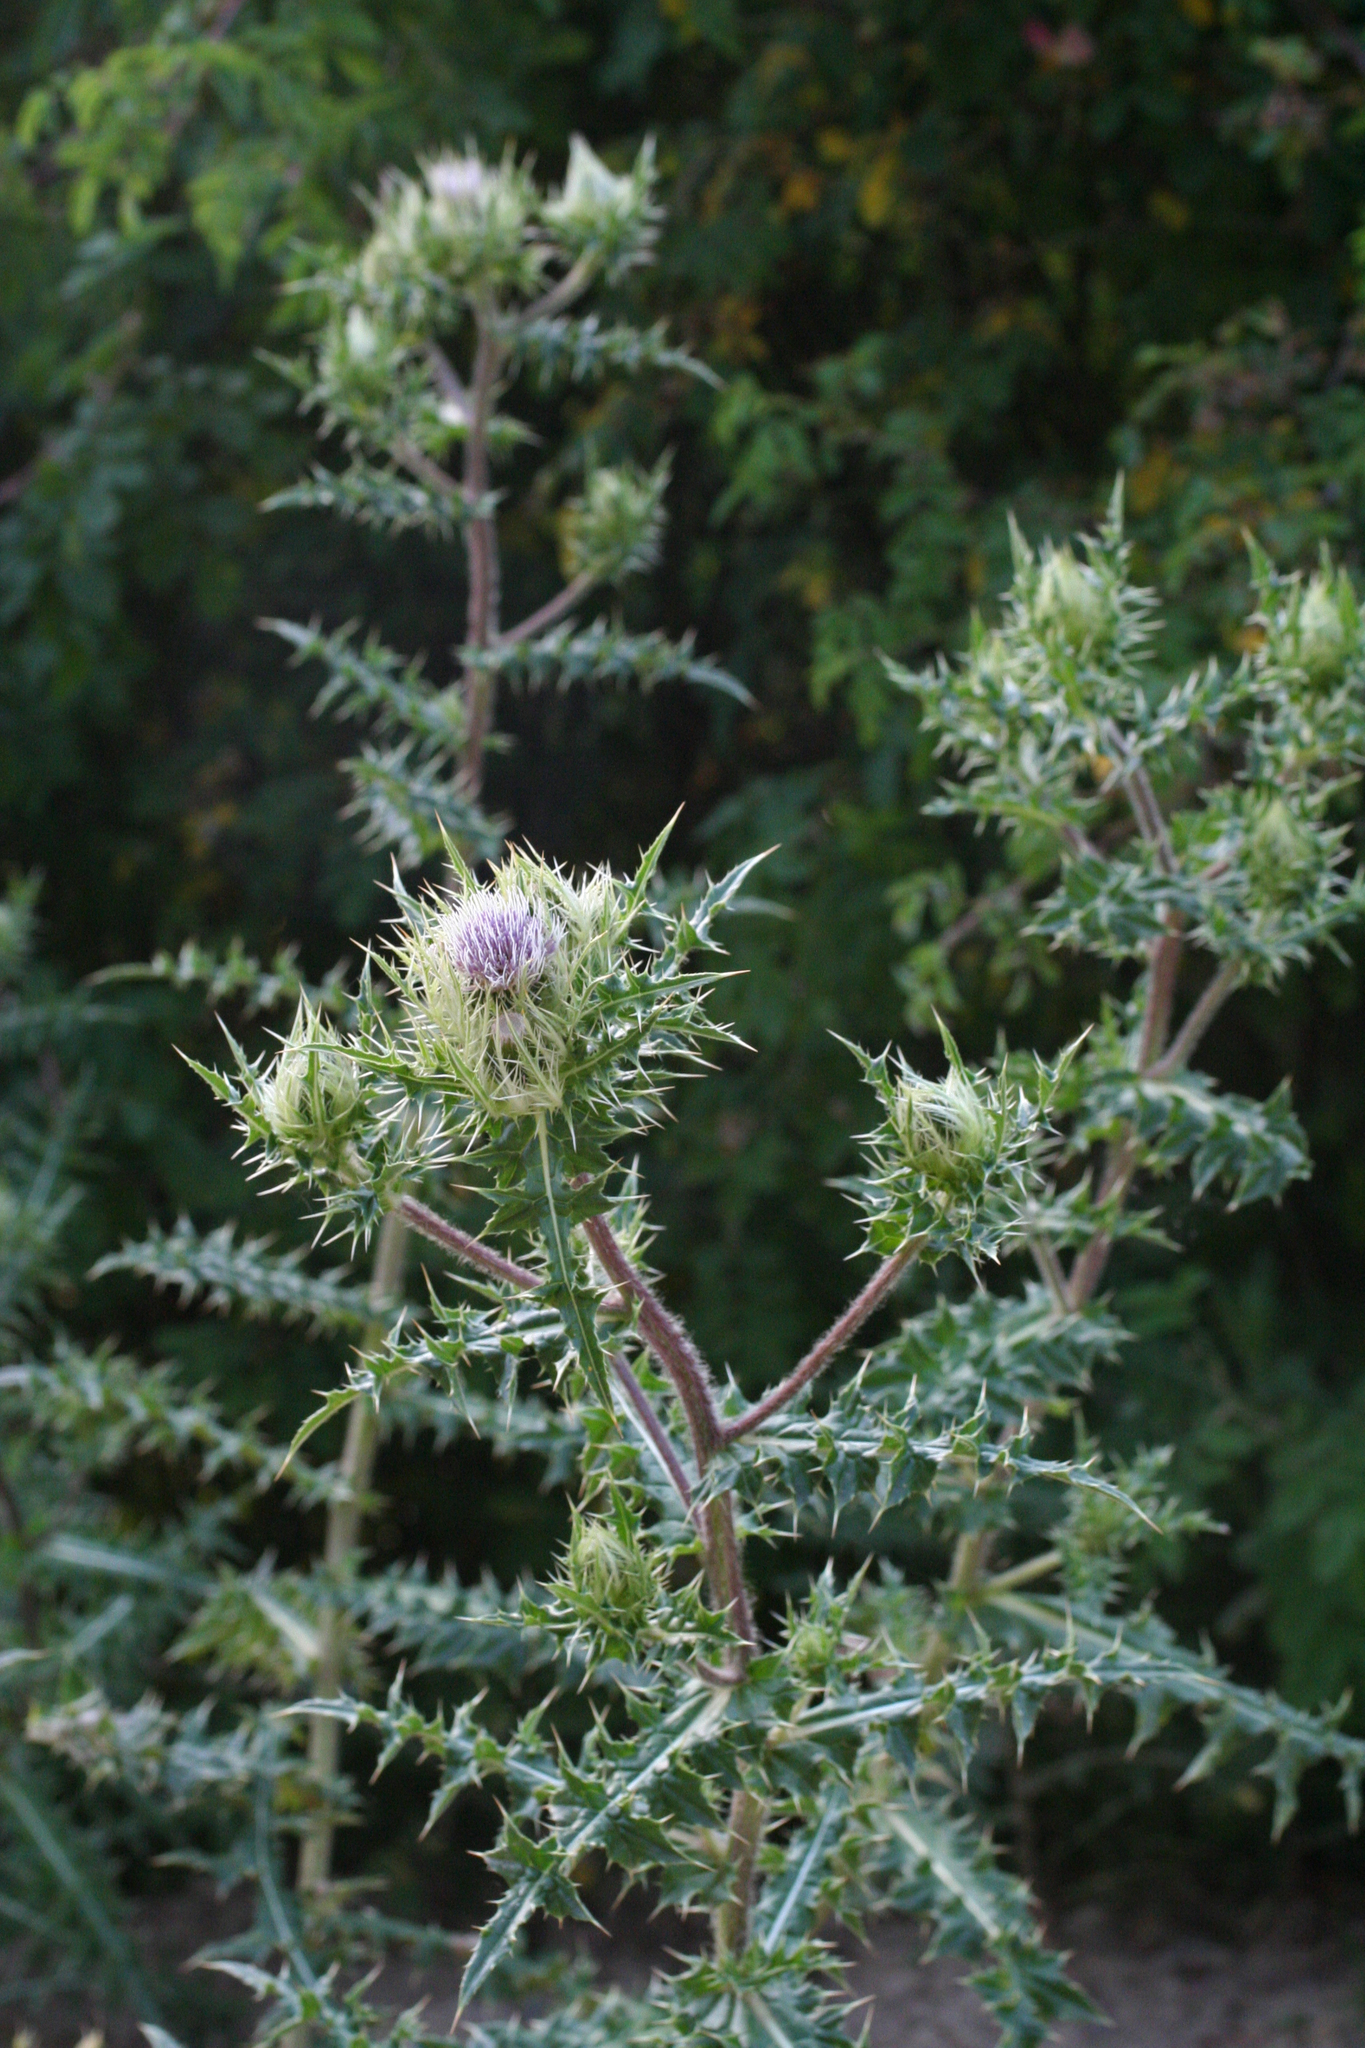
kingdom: Plantae
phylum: Tracheophyta
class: Magnoliopsida
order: Asterales
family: Asteraceae
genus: Cirsium
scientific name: Cirsium obvallatum
